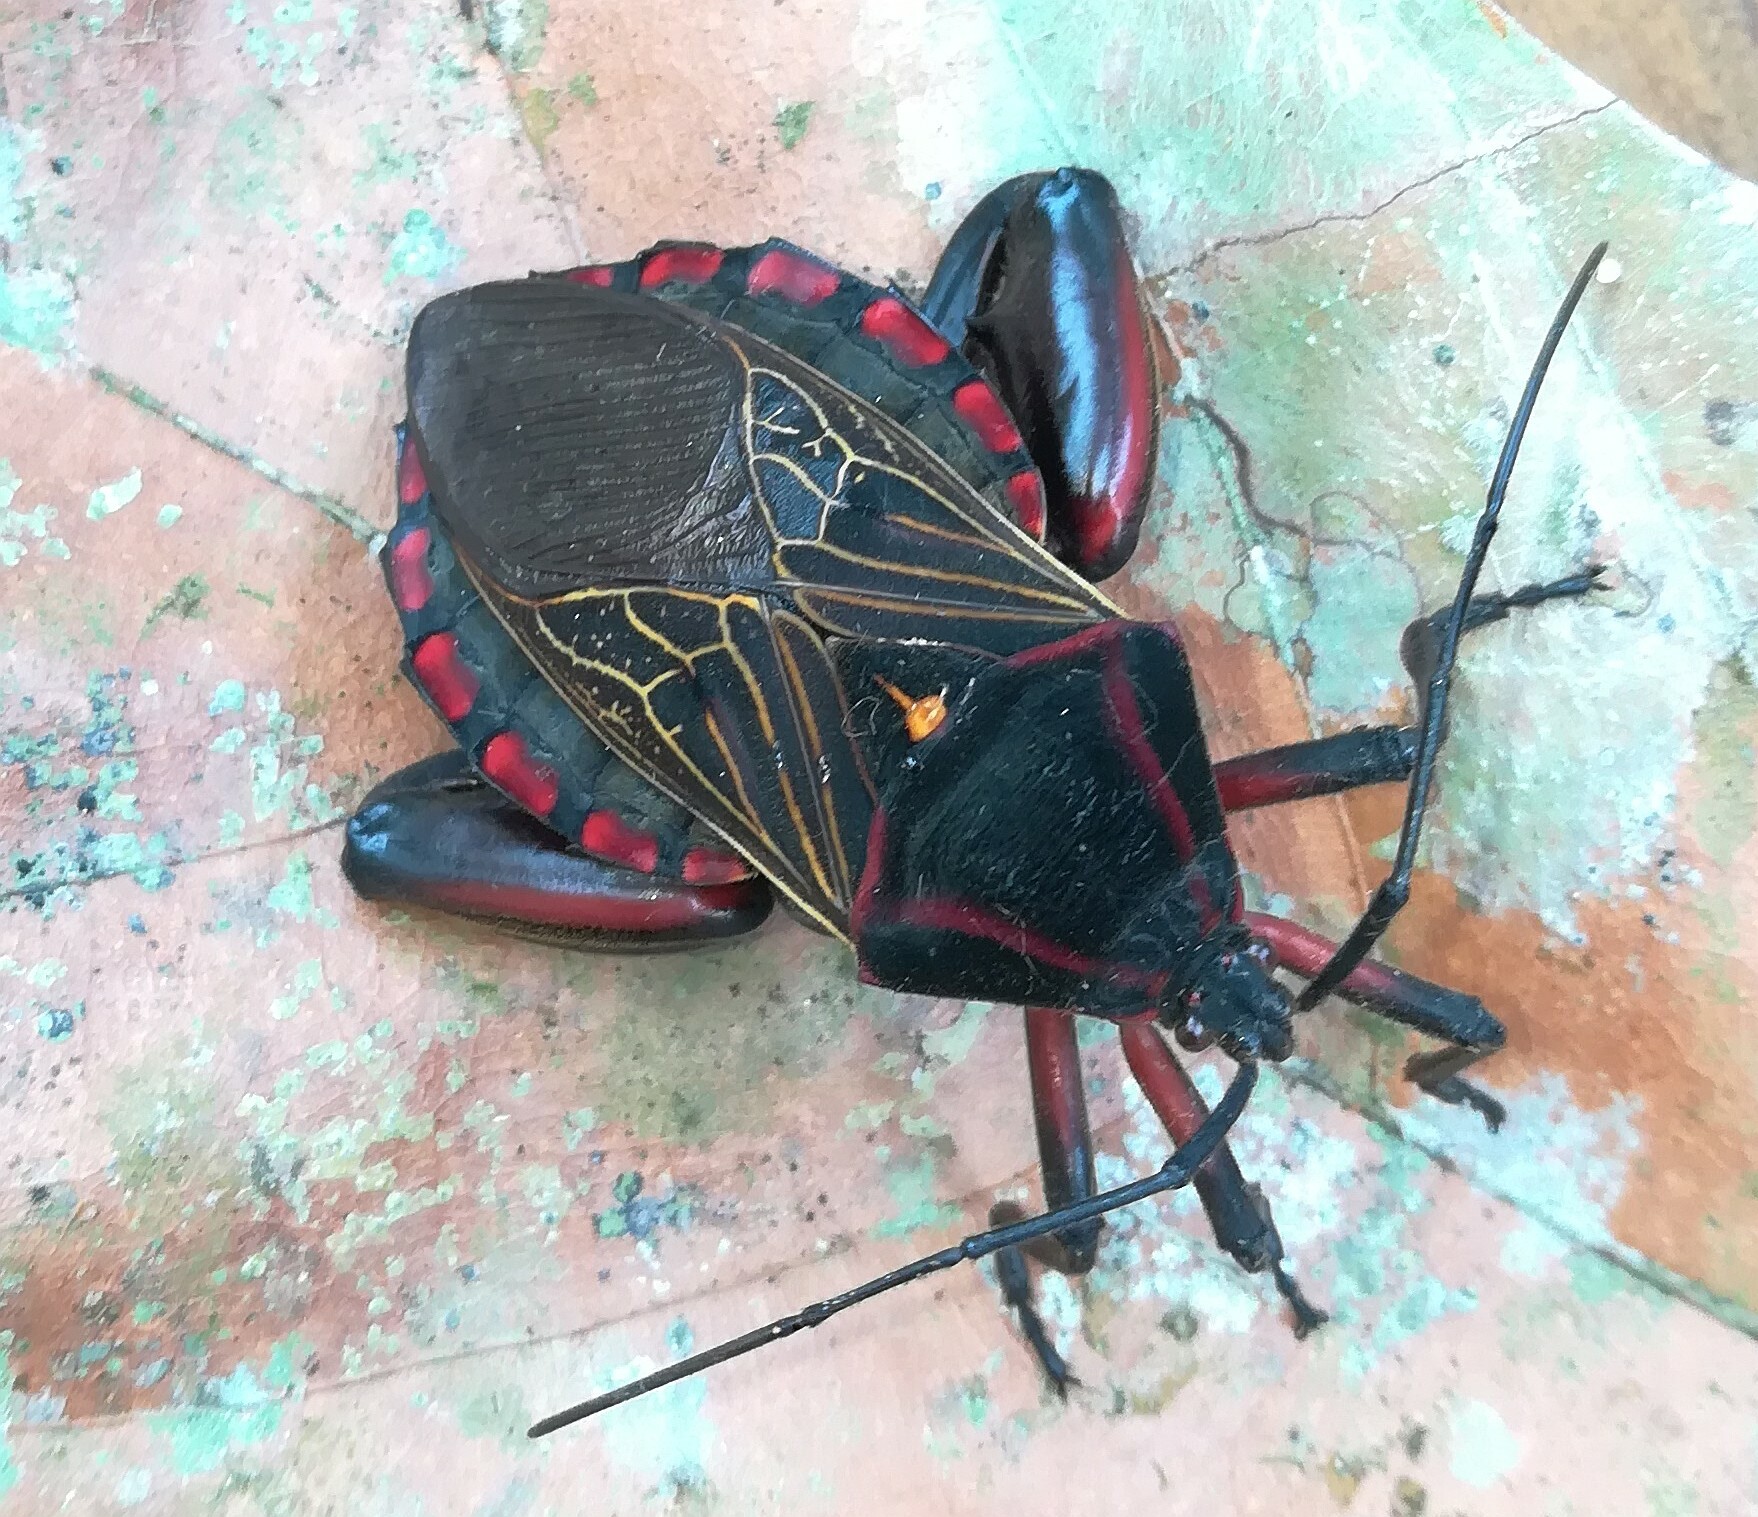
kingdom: Animalia
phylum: Arthropoda
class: Insecta
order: Hemiptera
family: Coreidae
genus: Pachylis
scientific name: Pachylis pharaonis
